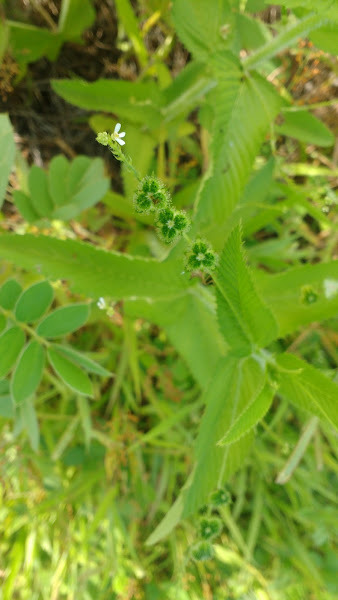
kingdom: Plantae
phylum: Tracheophyta
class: Magnoliopsida
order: Malpighiales
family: Euphorbiaceae
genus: Caperonia
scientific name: Caperonia palustris
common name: Sacatrapo
